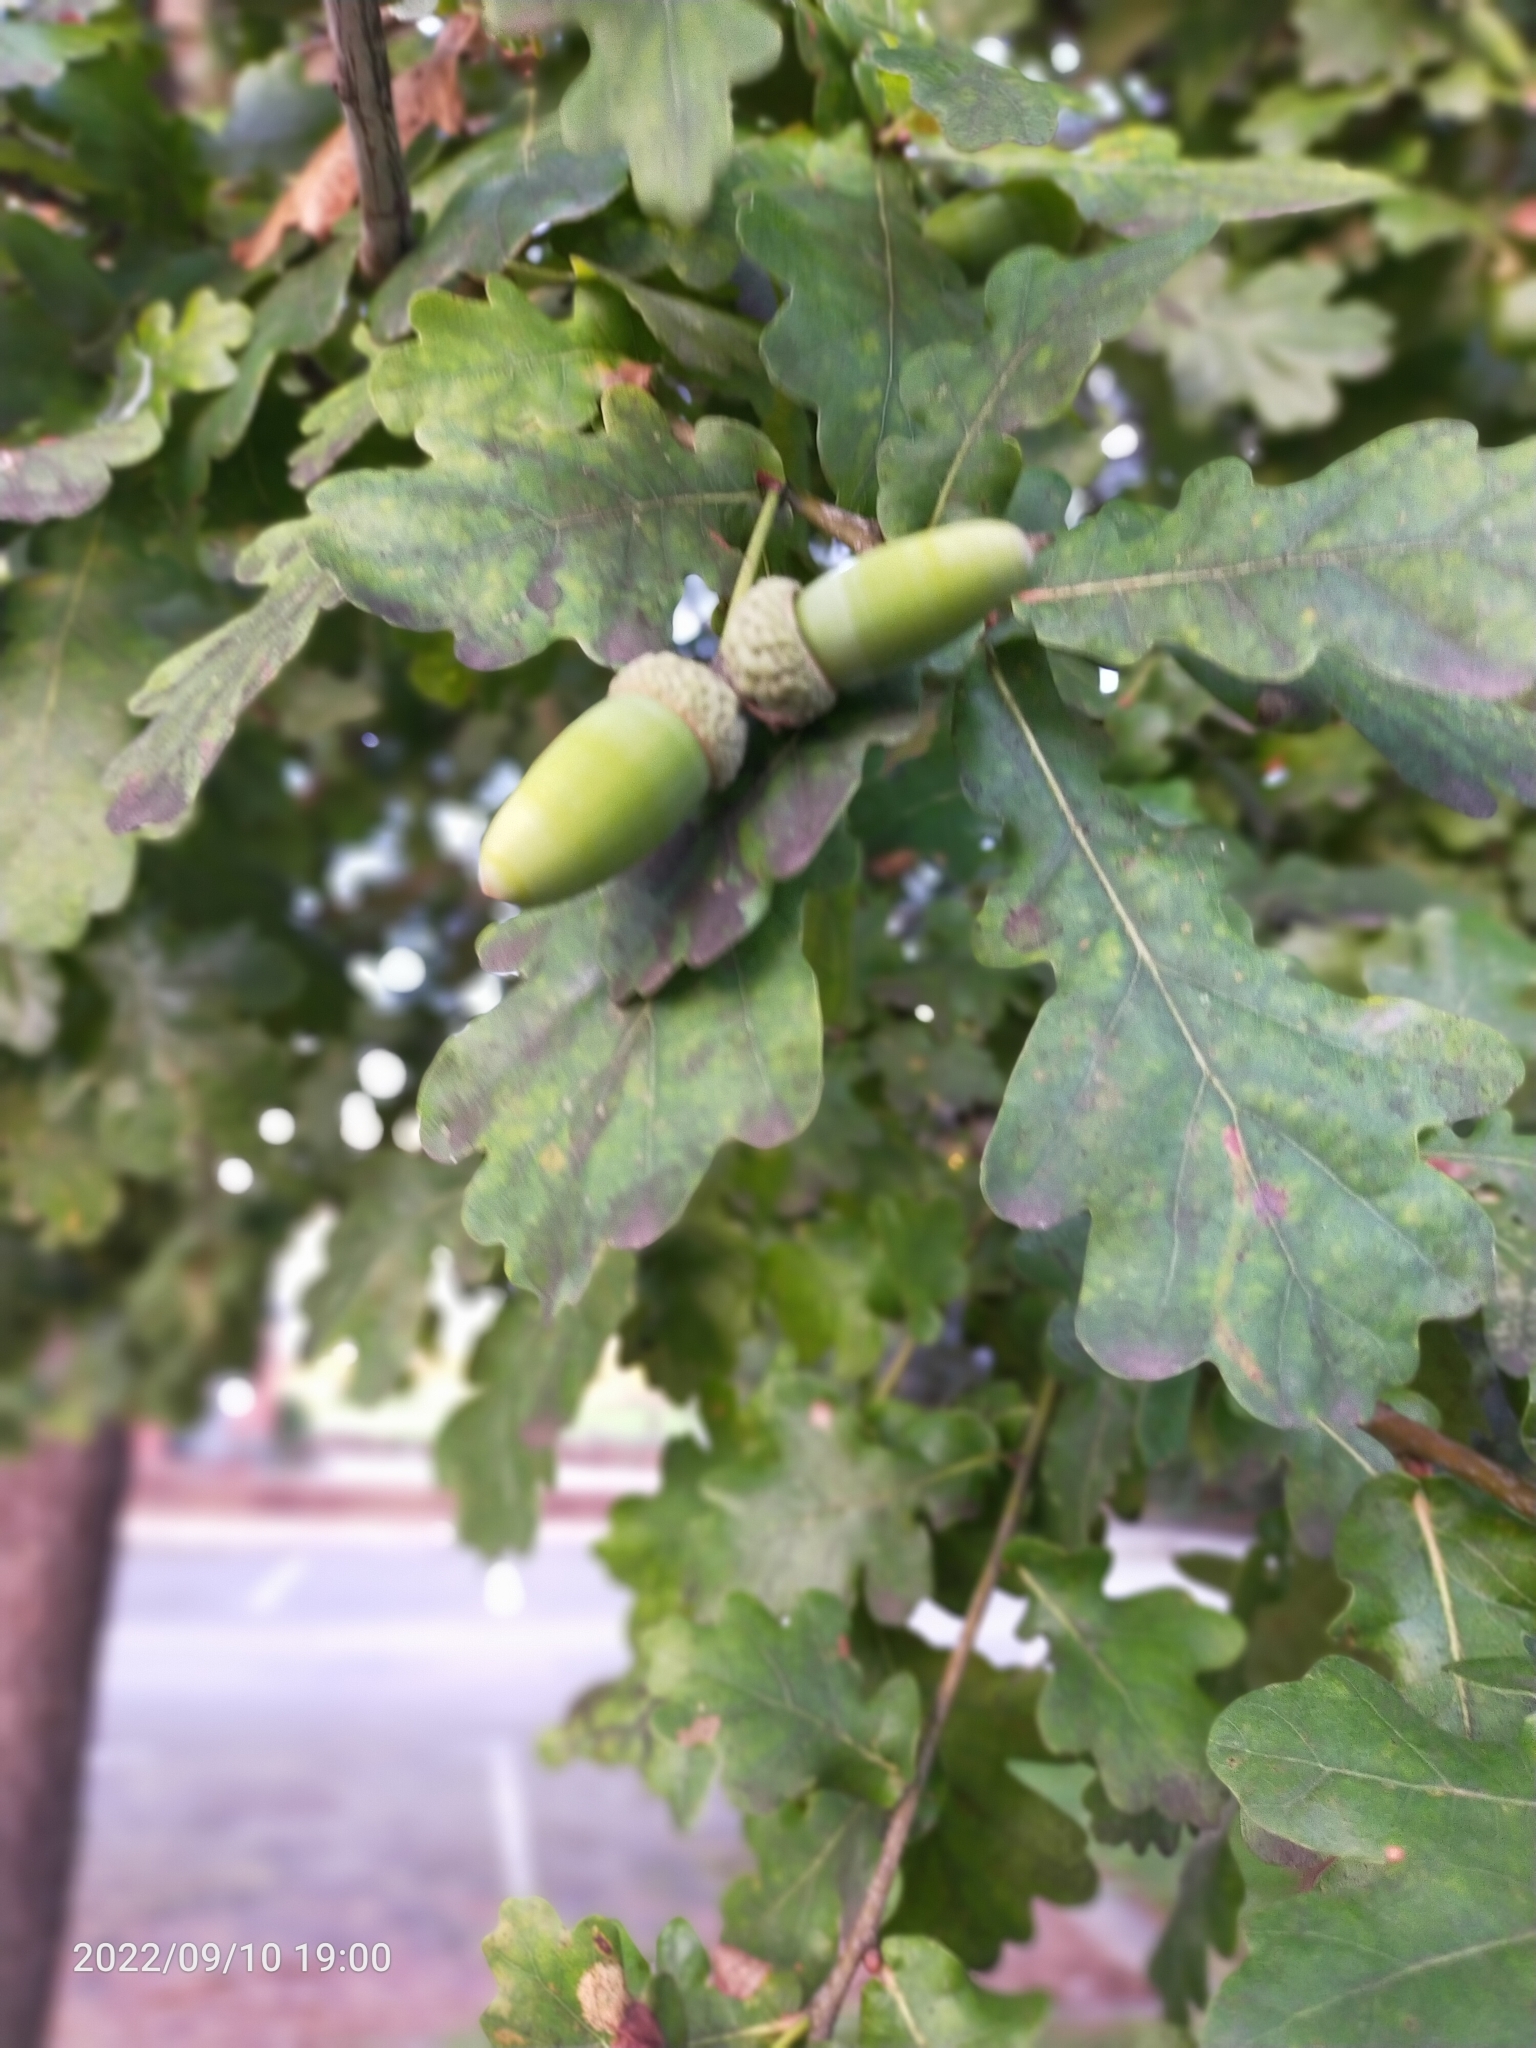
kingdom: Plantae
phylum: Tracheophyta
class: Magnoliopsida
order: Fagales
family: Fagaceae
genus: Quercus
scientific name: Quercus robur
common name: Pedunculate oak
